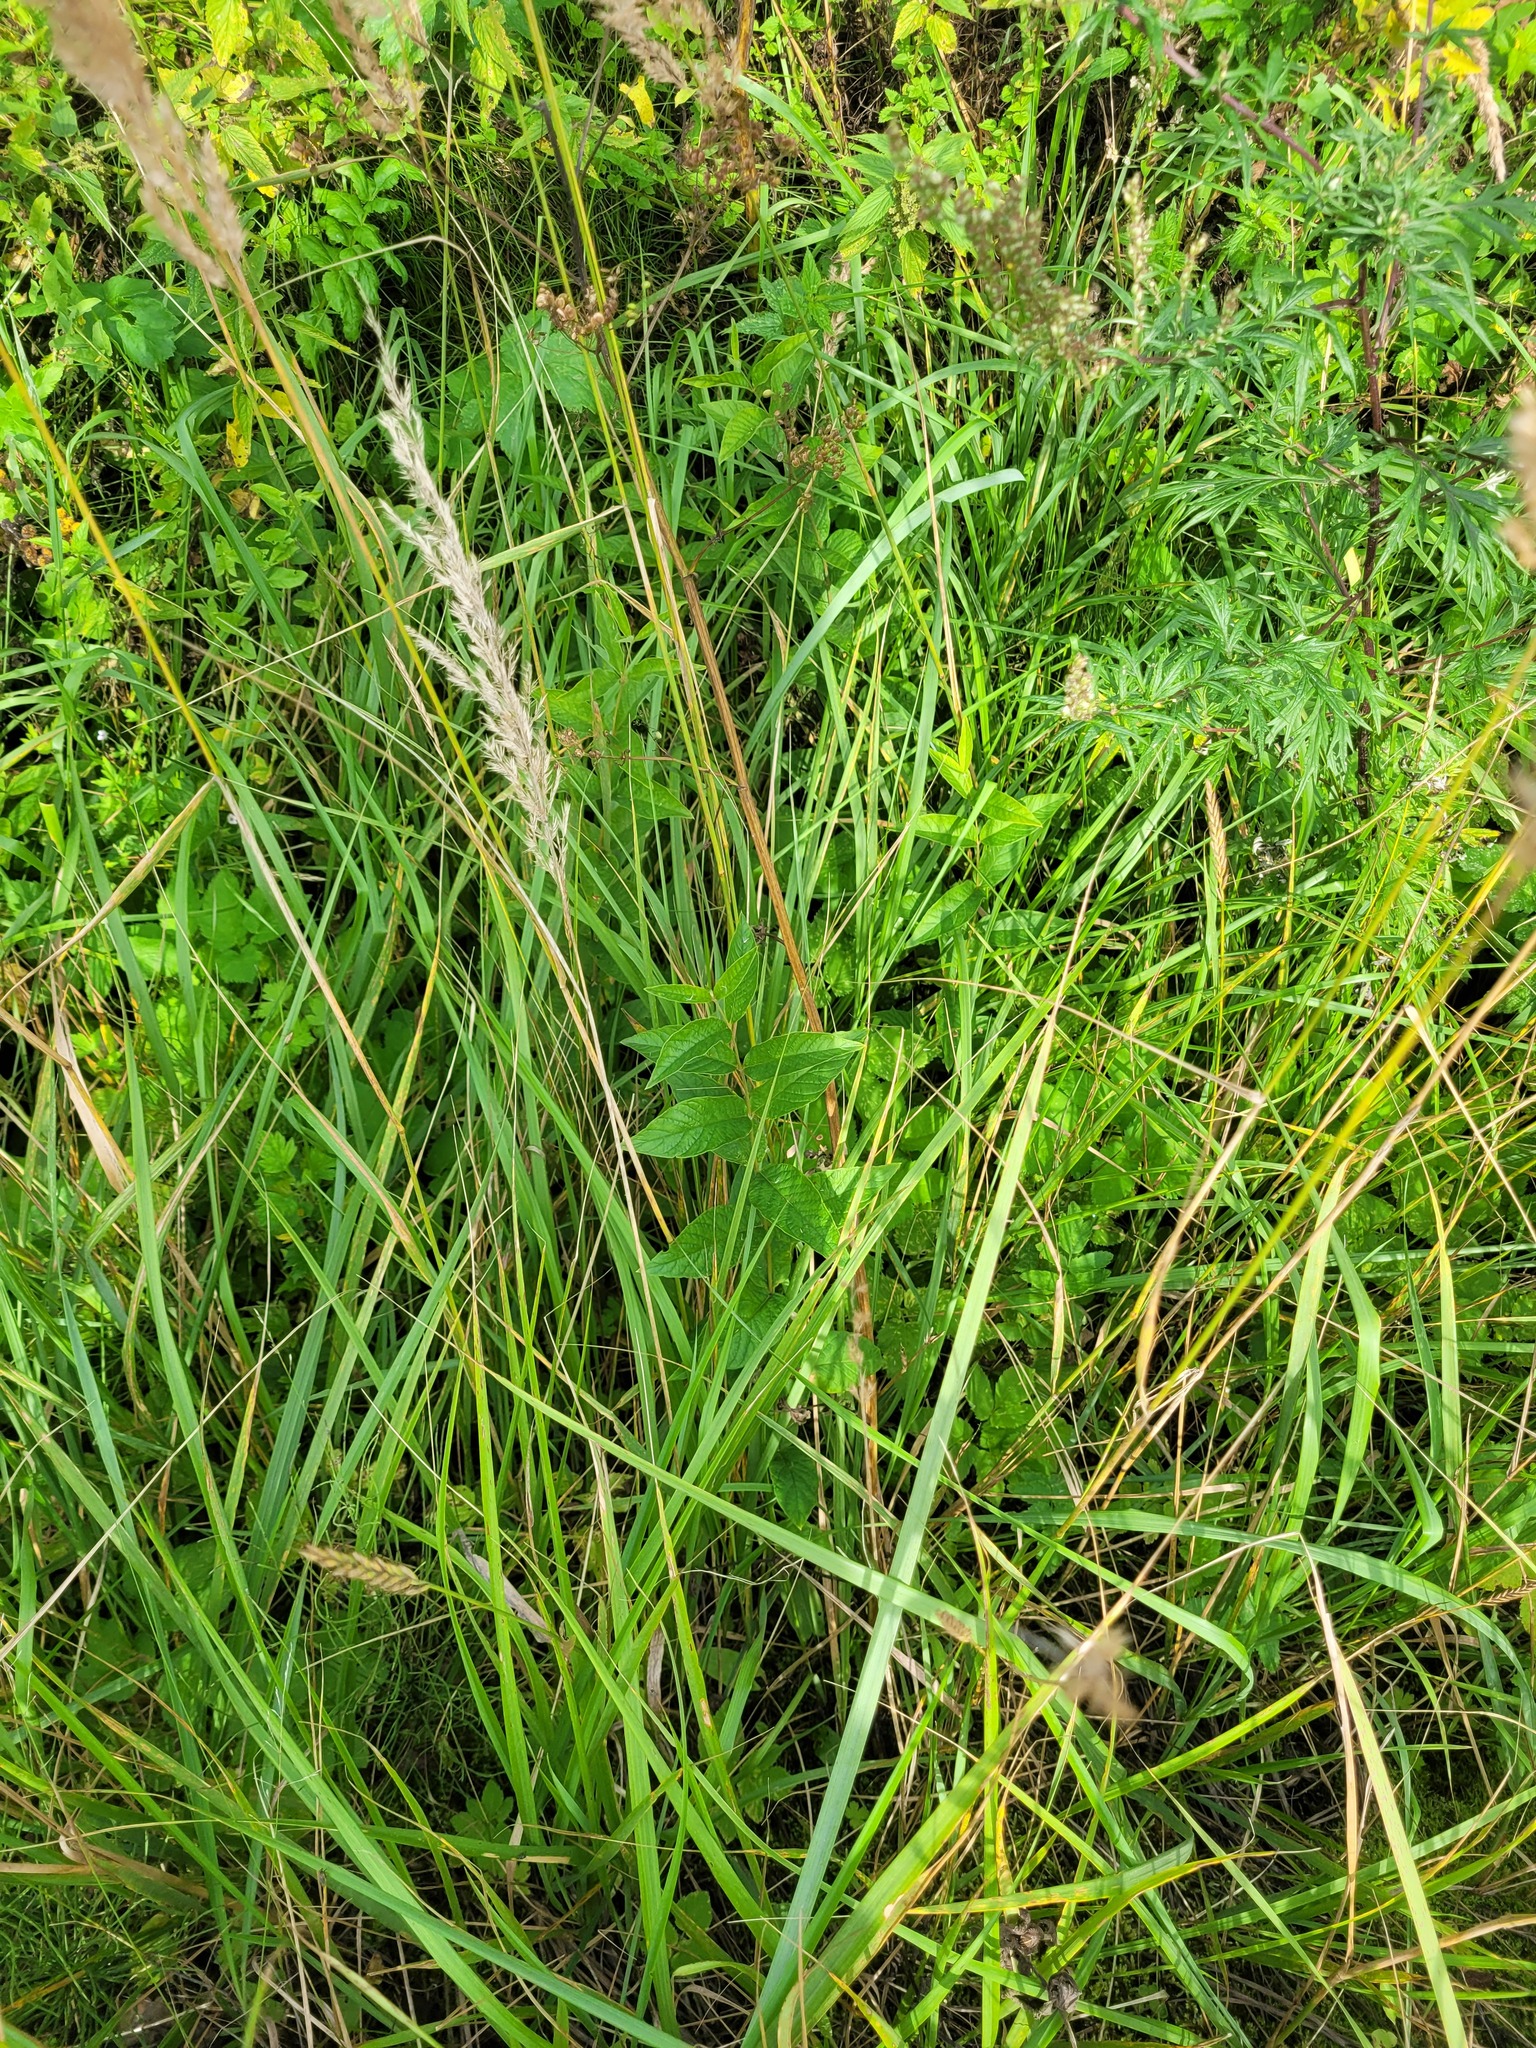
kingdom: Plantae
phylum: Tracheophyta
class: Magnoliopsida
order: Ericales
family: Primulaceae
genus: Lysimachia
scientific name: Lysimachia vulgaris
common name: Yellow loosestrife
